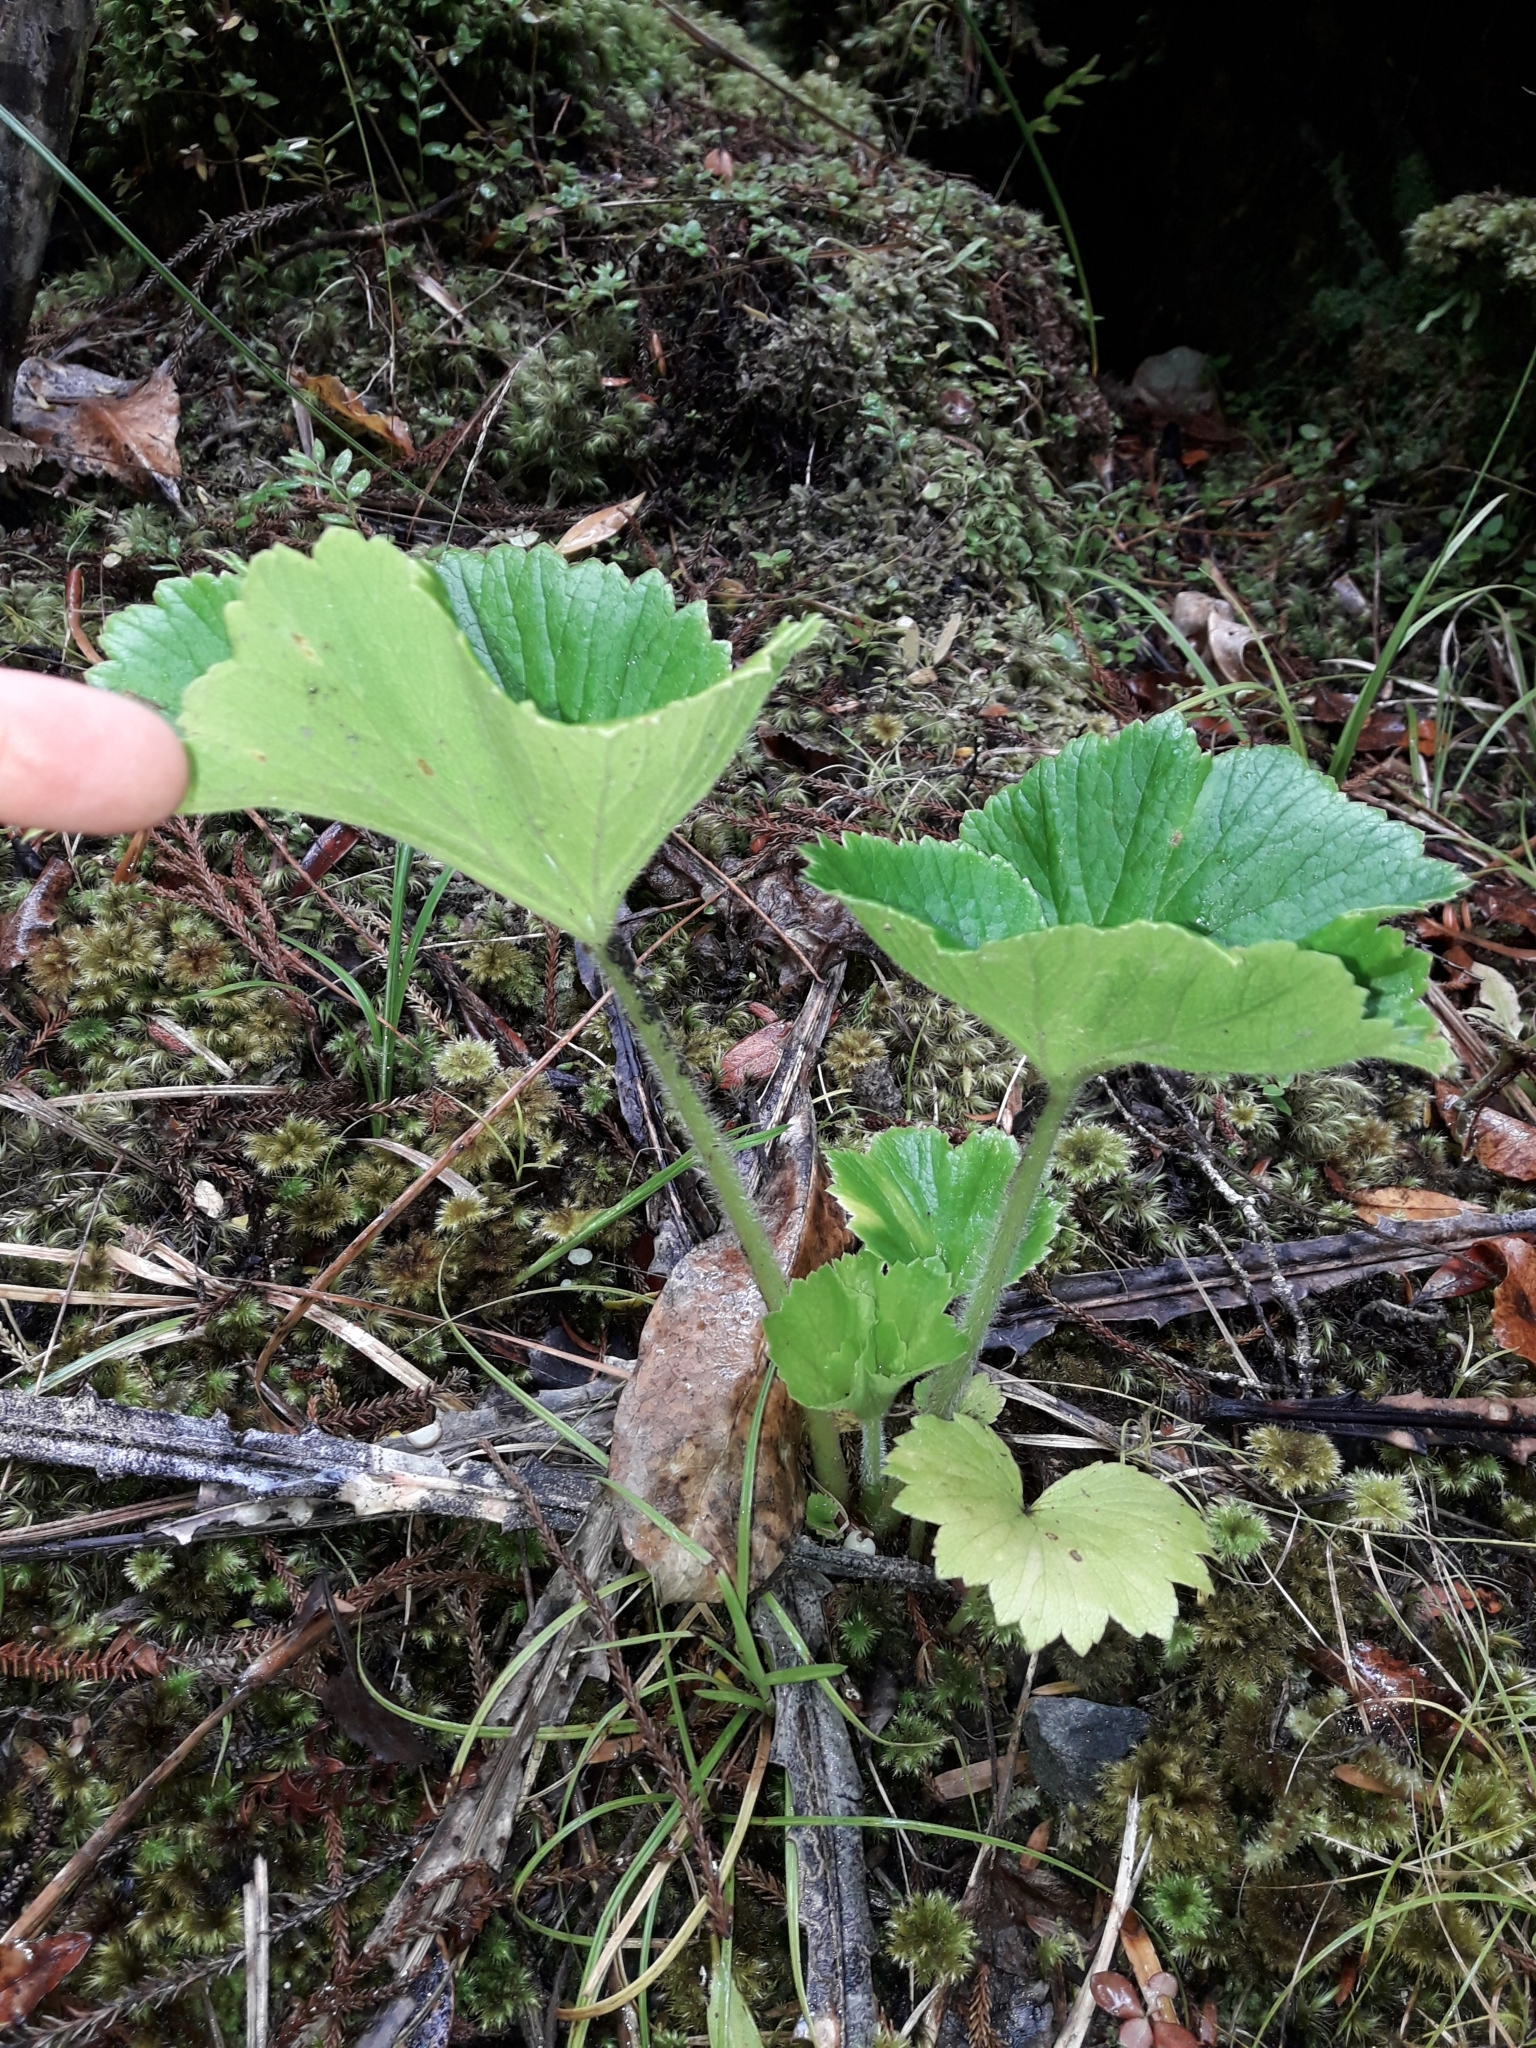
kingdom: Plantae
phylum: Tracheophyta
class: Magnoliopsida
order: Apiales
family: Apiaceae
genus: Azorella
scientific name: Azorella lyallii
